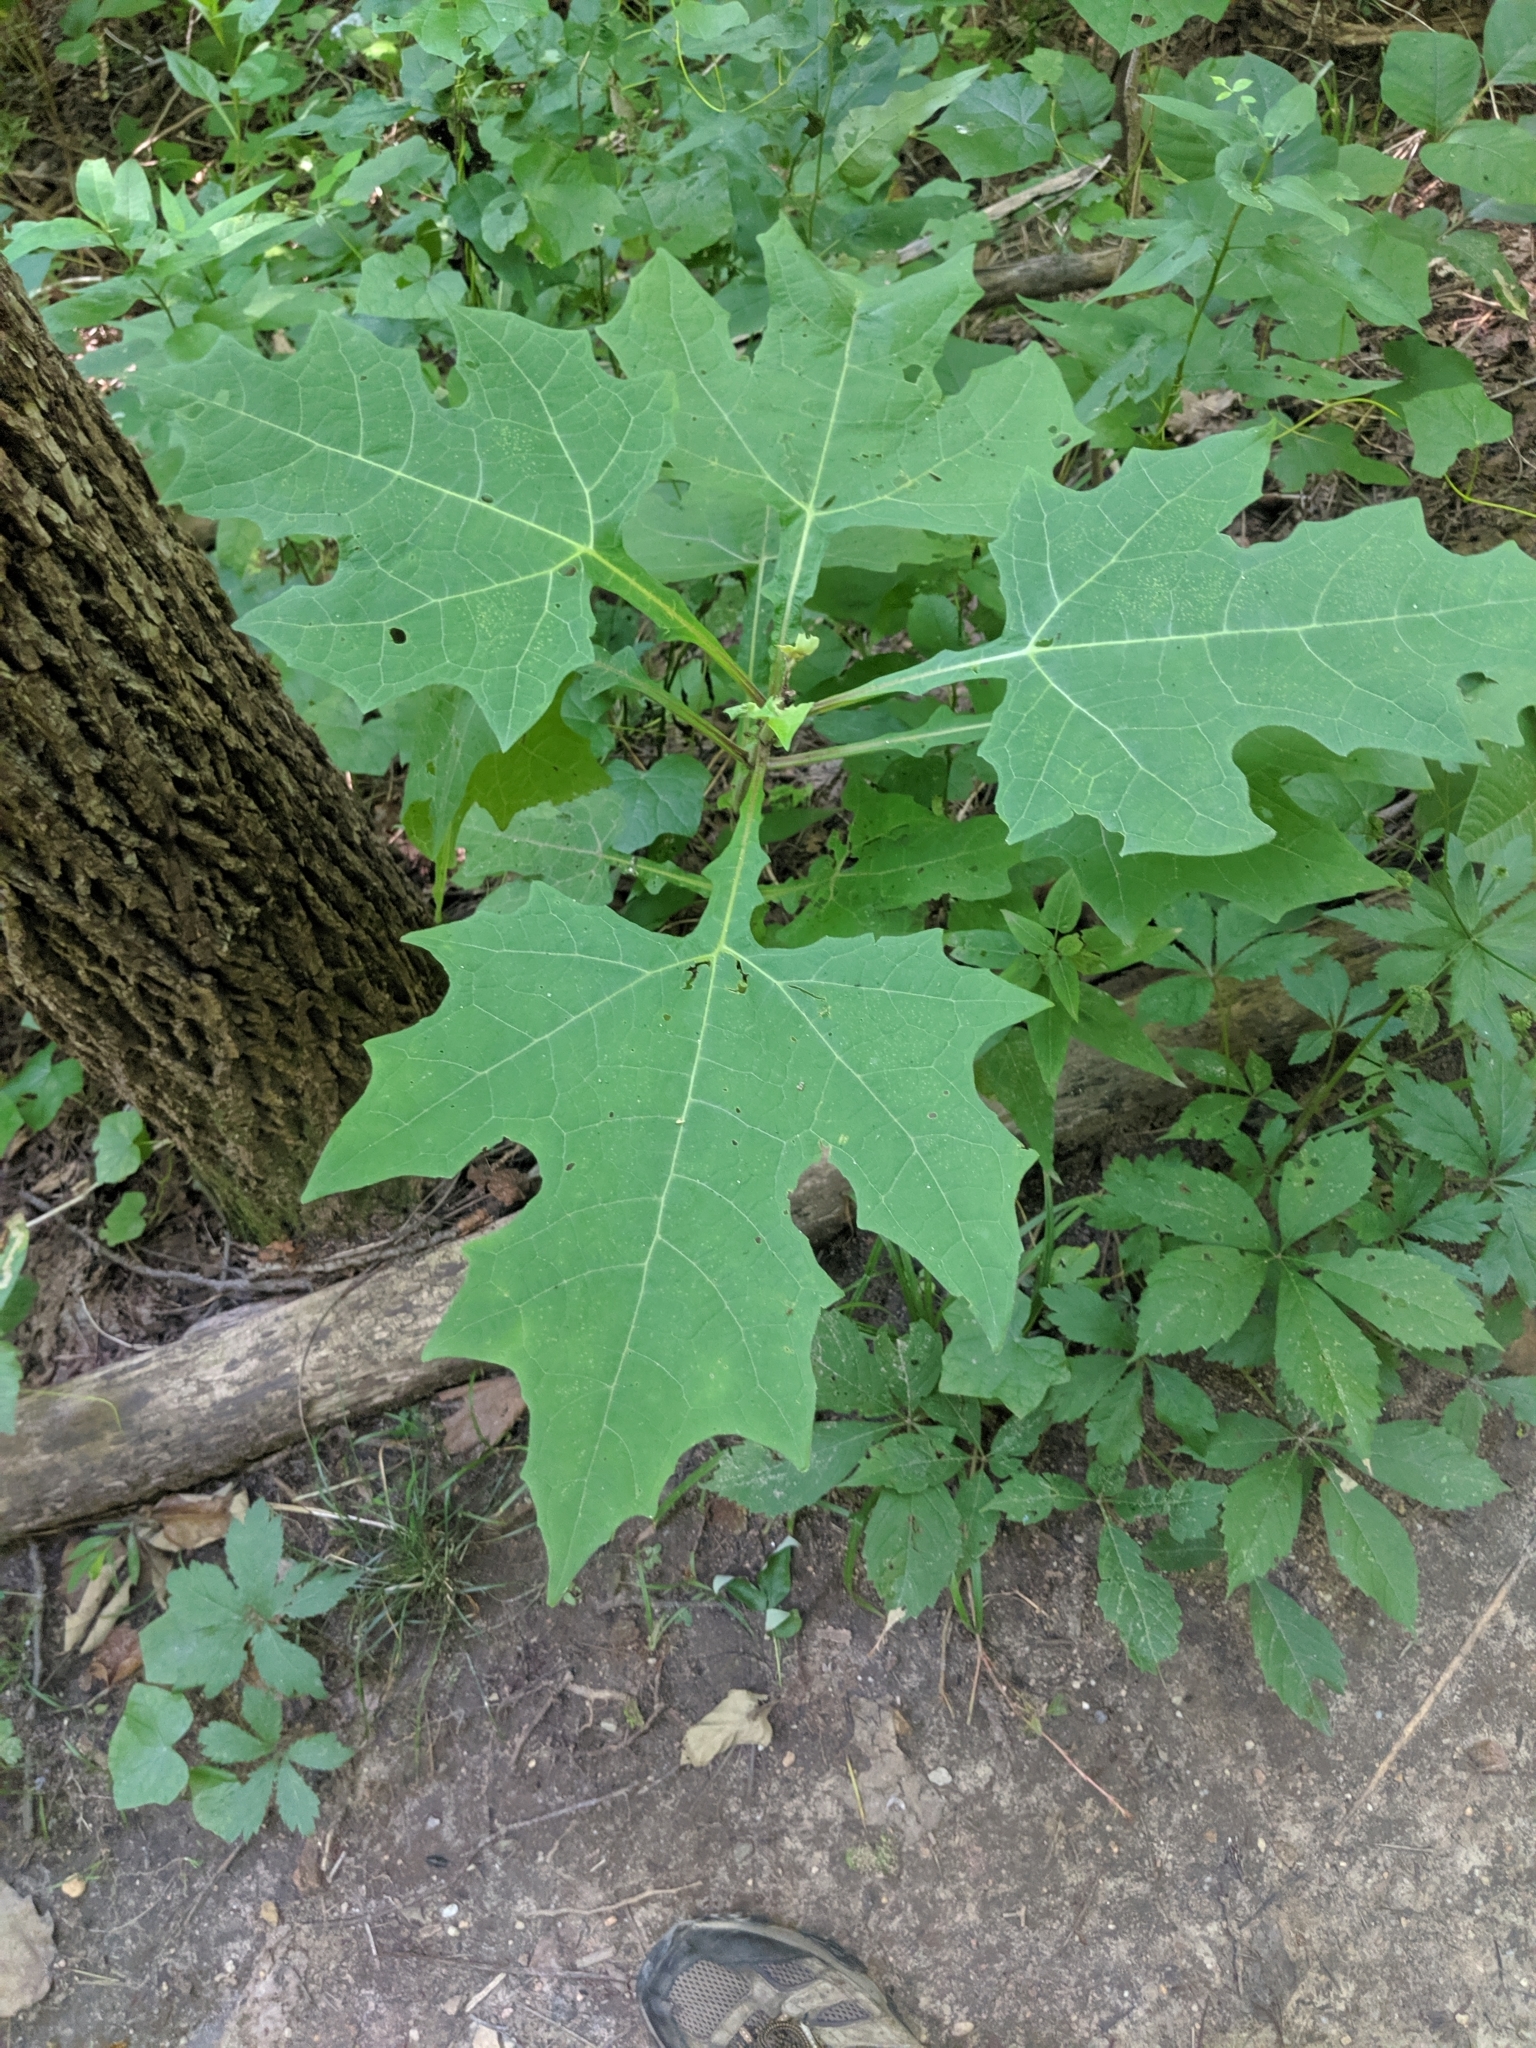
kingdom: Plantae
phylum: Tracheophyta
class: Magnoliopsida
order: Asterales
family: Asteraceae
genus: Smallanthus
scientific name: Smallanthus uvedalia
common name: Bear's-foot
